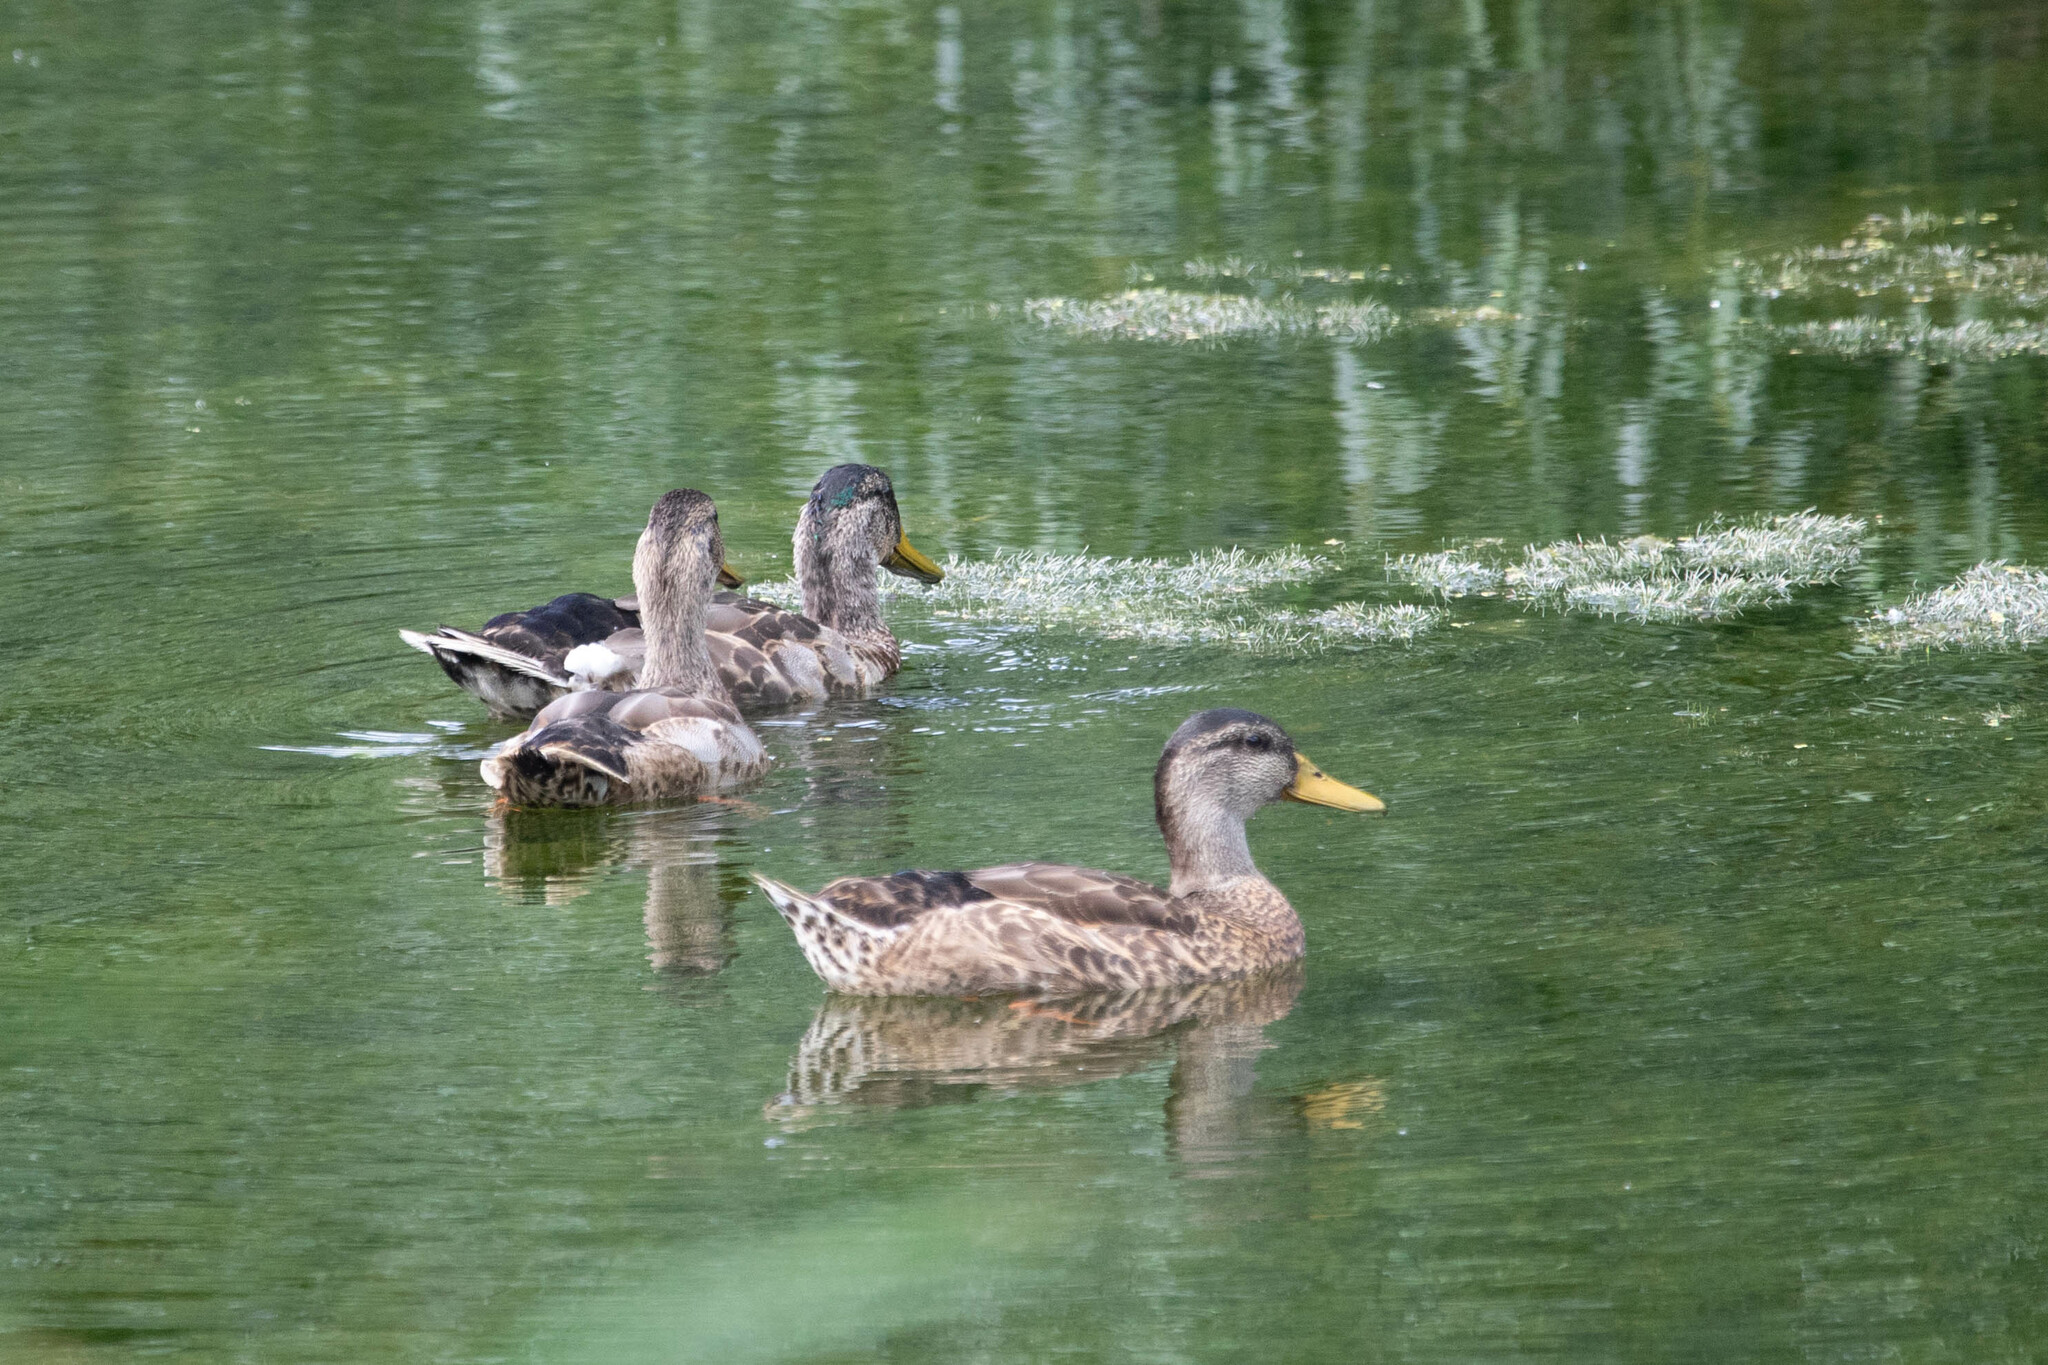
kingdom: Animalia
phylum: Chordata
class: Aves
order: Anseriformes
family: Anatidae
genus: Anas
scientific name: Anas platyrhynchos
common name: Mallard
